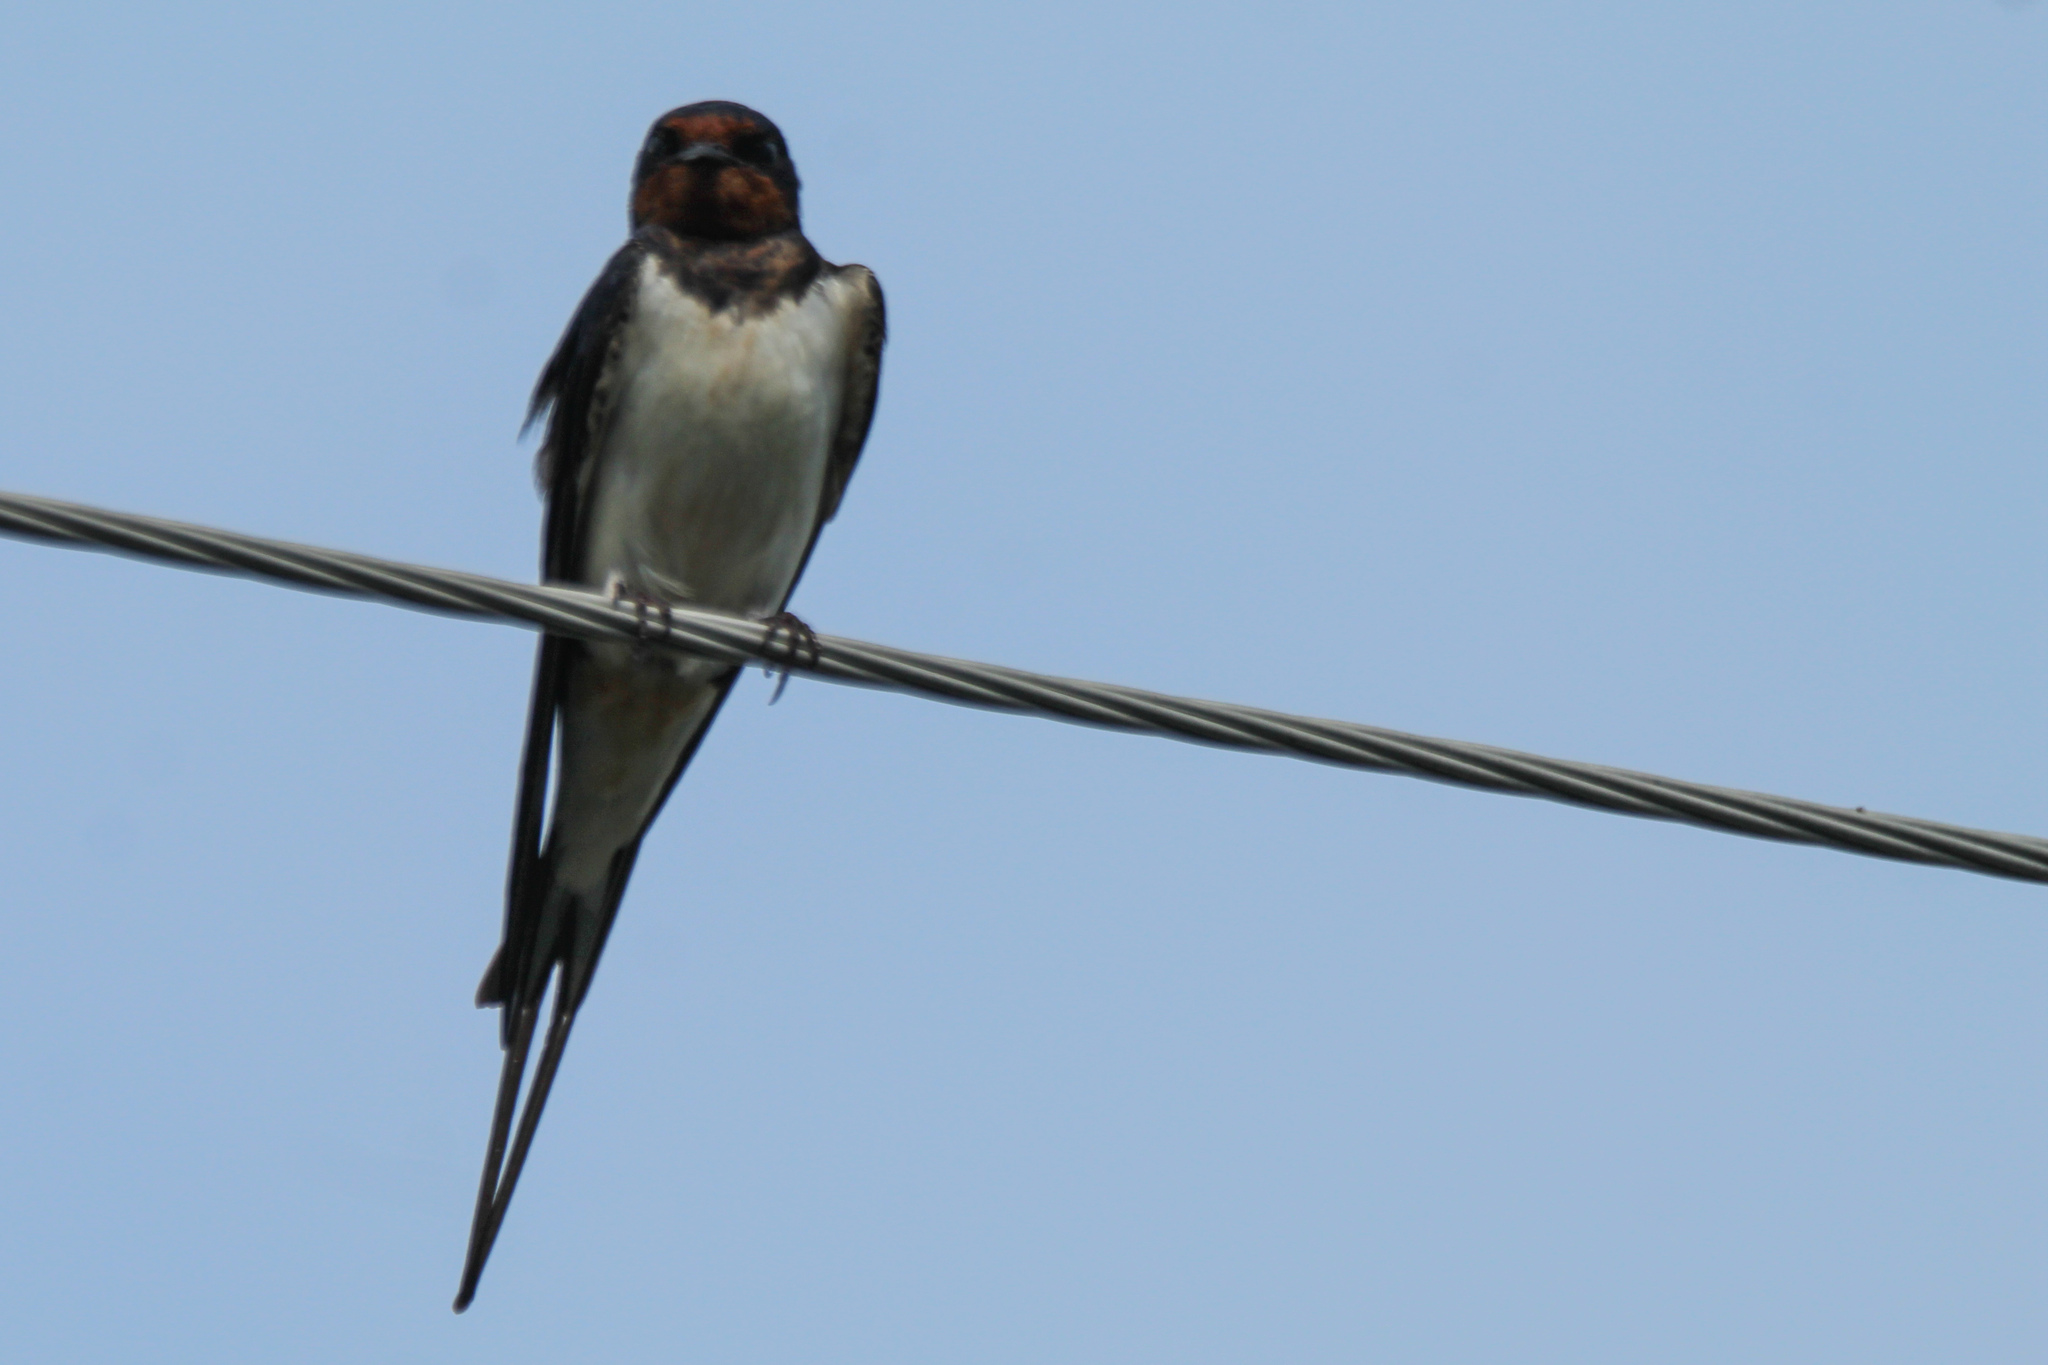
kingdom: Animalia
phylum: Chordata
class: Aves
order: Passeriformes
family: Hirundinidae
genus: Hirundo
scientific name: Hirundo rustica
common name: Barn swallow
